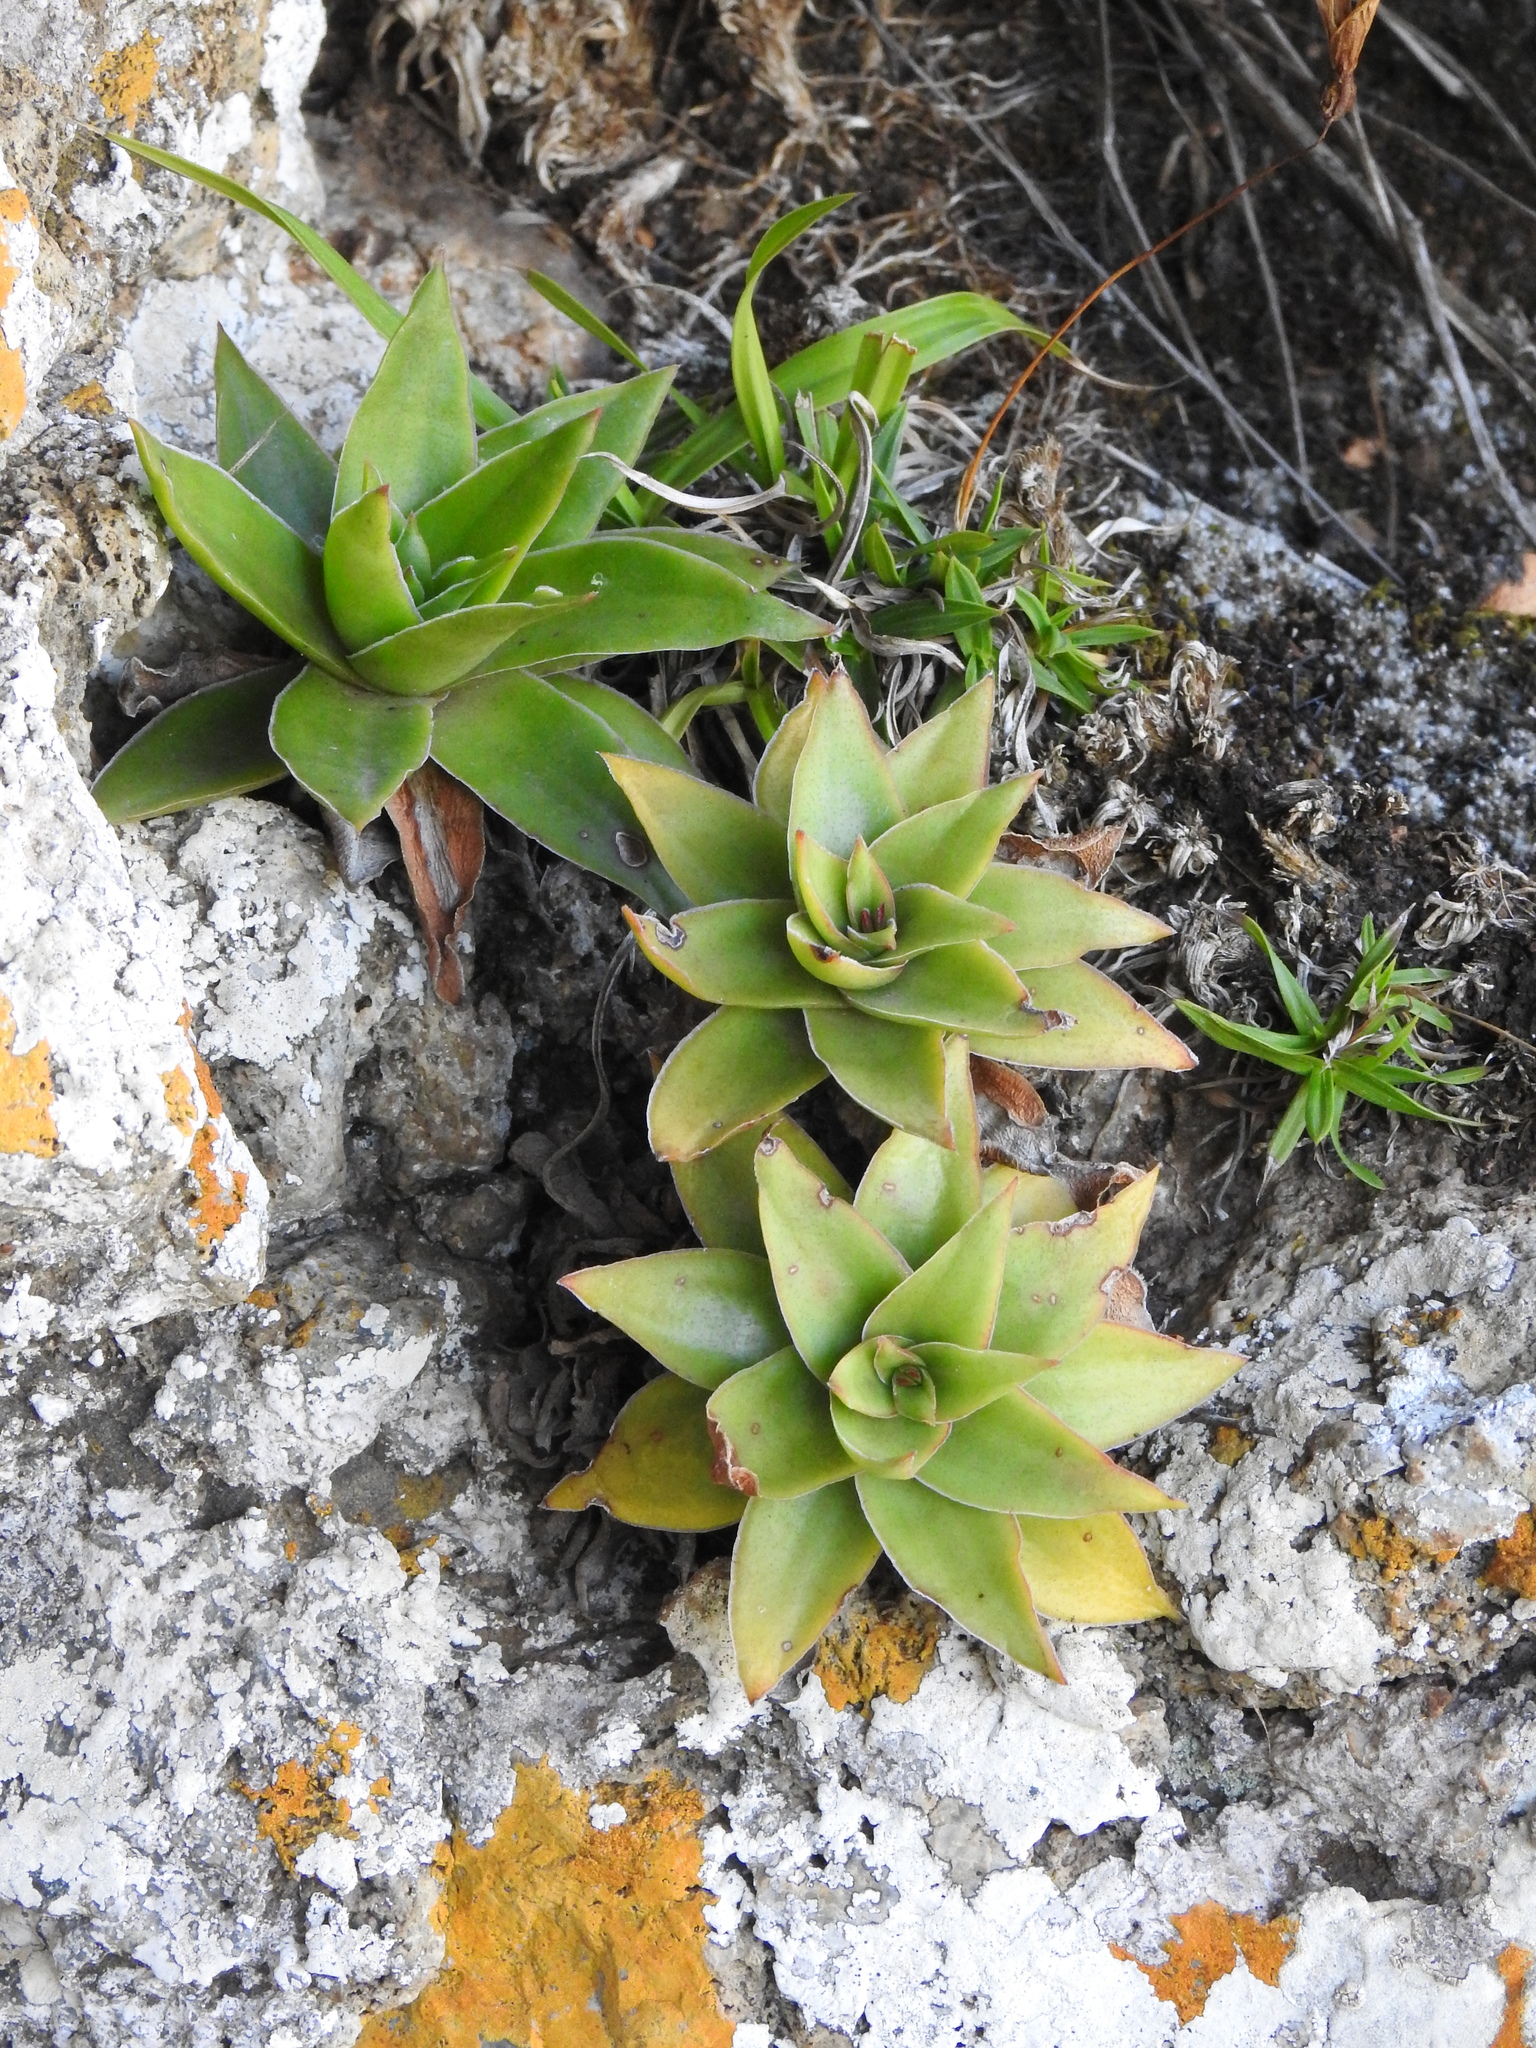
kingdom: Plantae
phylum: Tracheophyta
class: Magnoliopsida
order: Saxifragales
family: Crassulaceae
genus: Crassula
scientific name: Crassula alba
